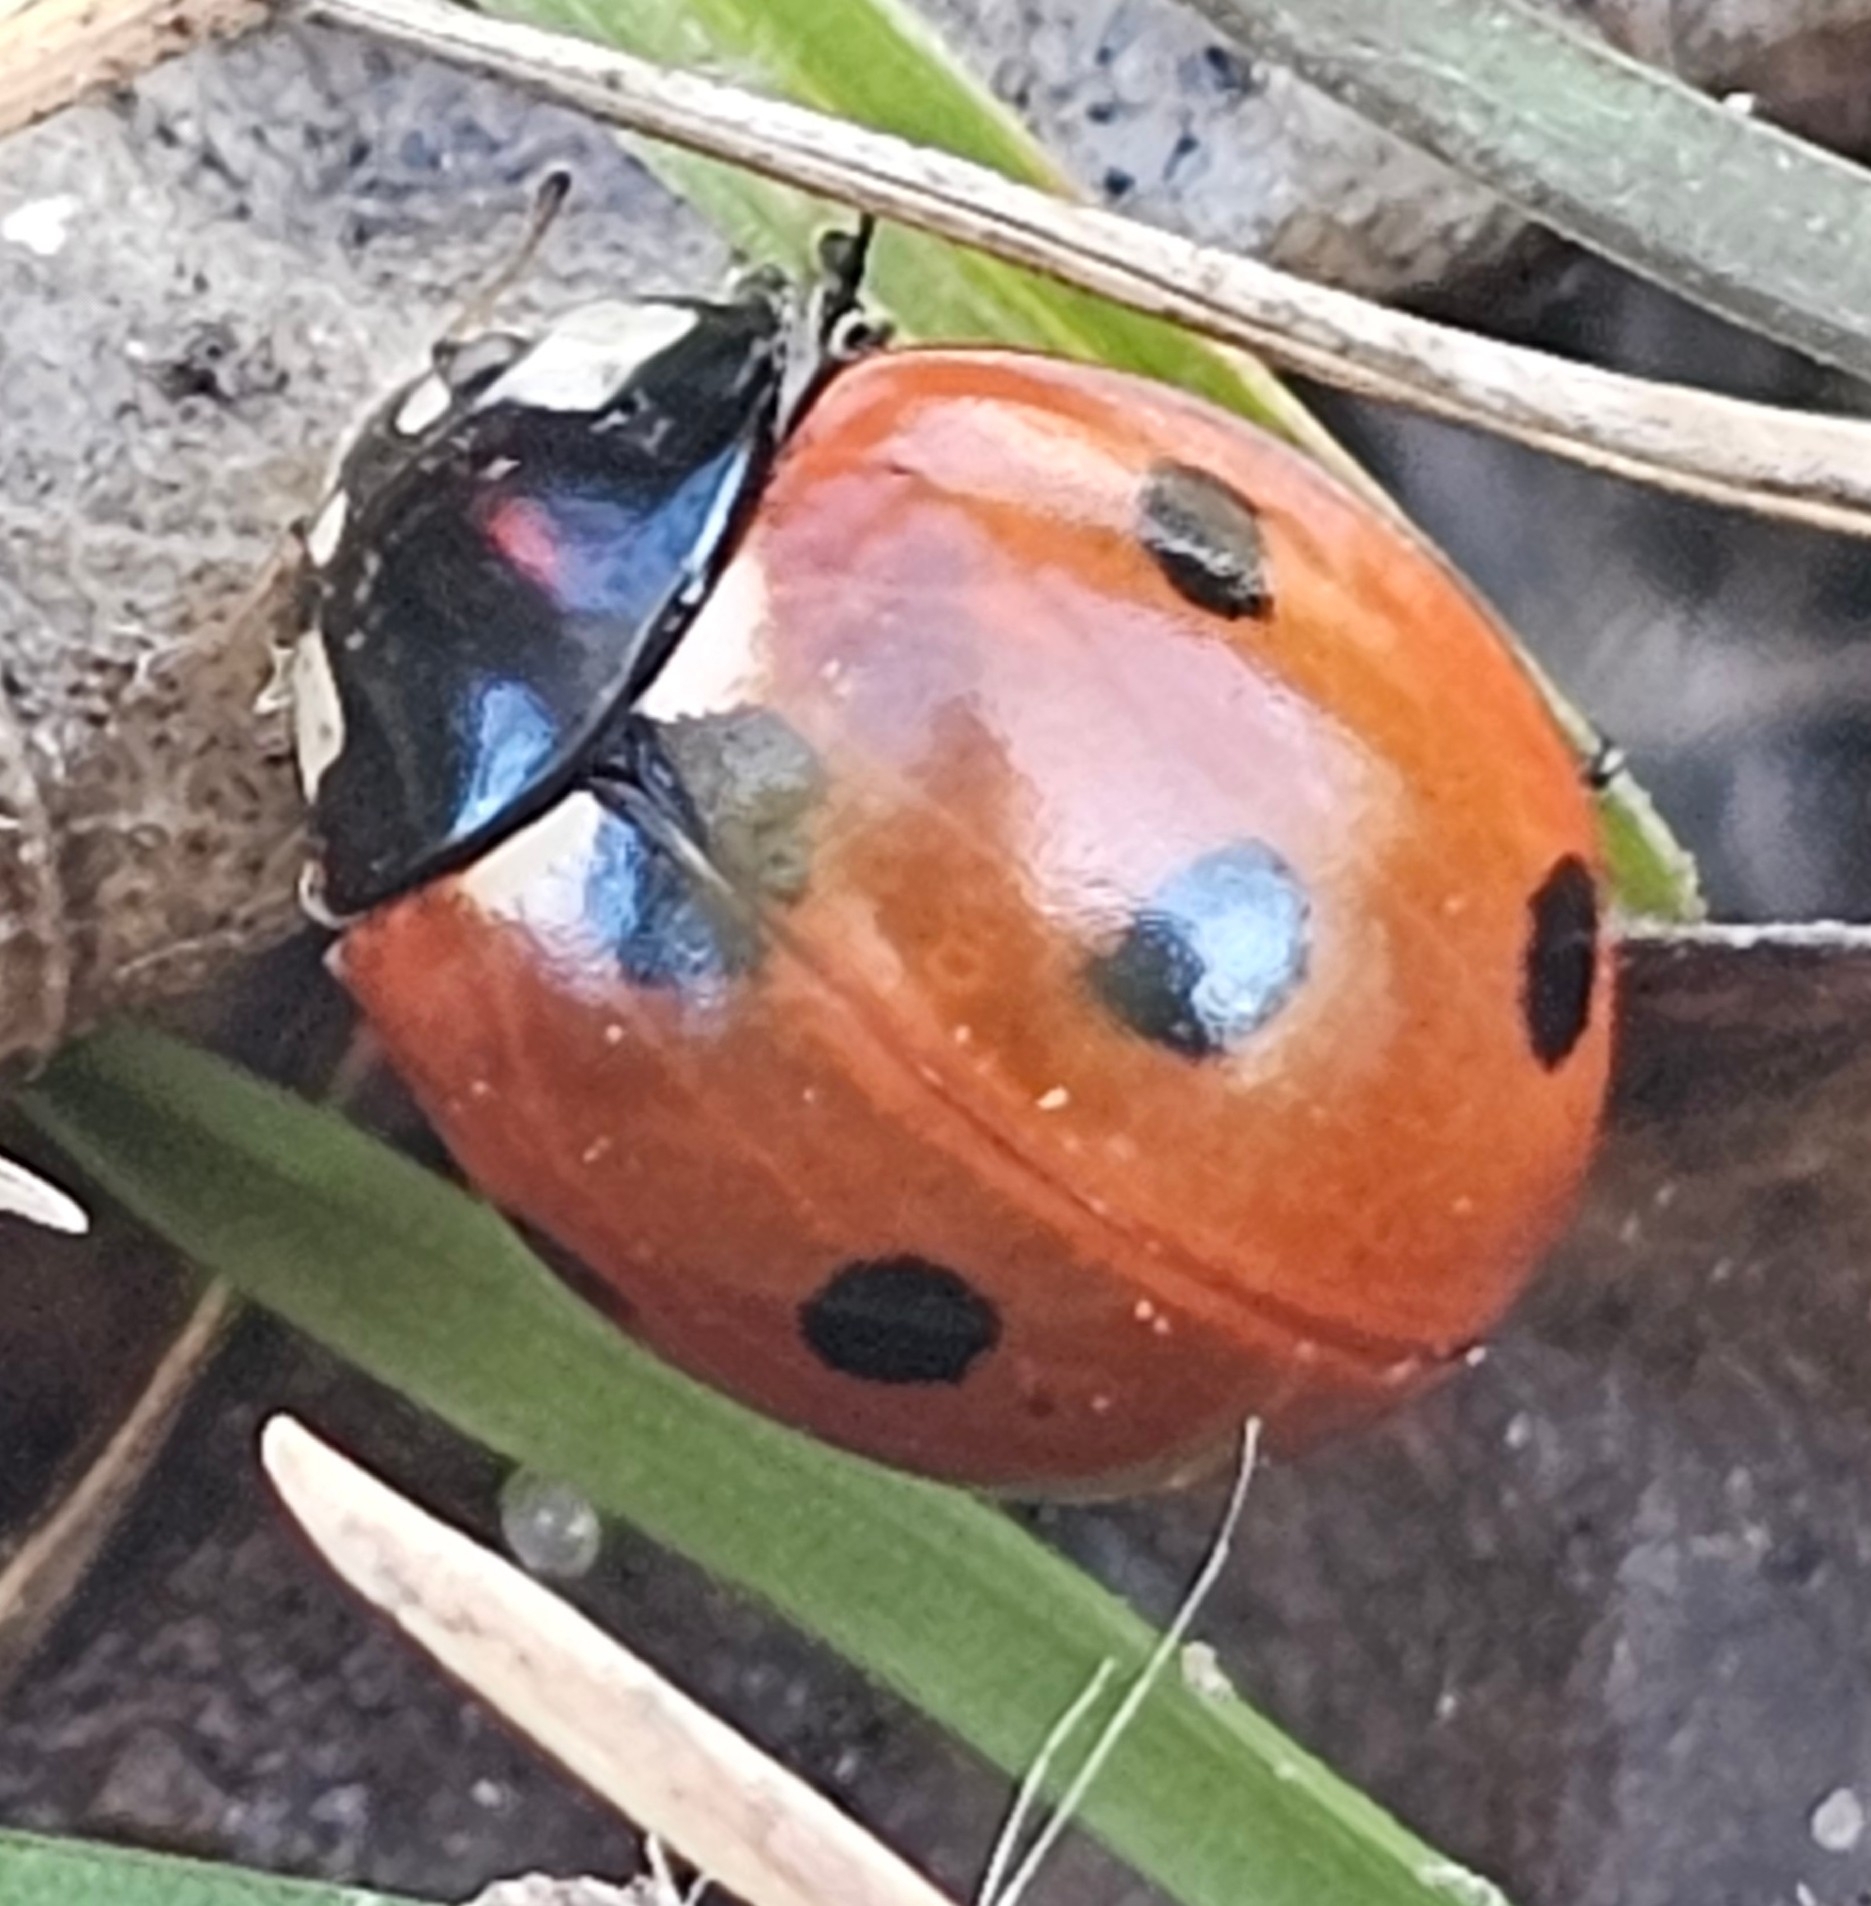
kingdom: Animalia
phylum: Arthropoda
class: Insecta
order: Coleoptera
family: Coccinellidae
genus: Coccinella
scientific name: Coccinella septempunctata
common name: Sevenspotted lady beetle
